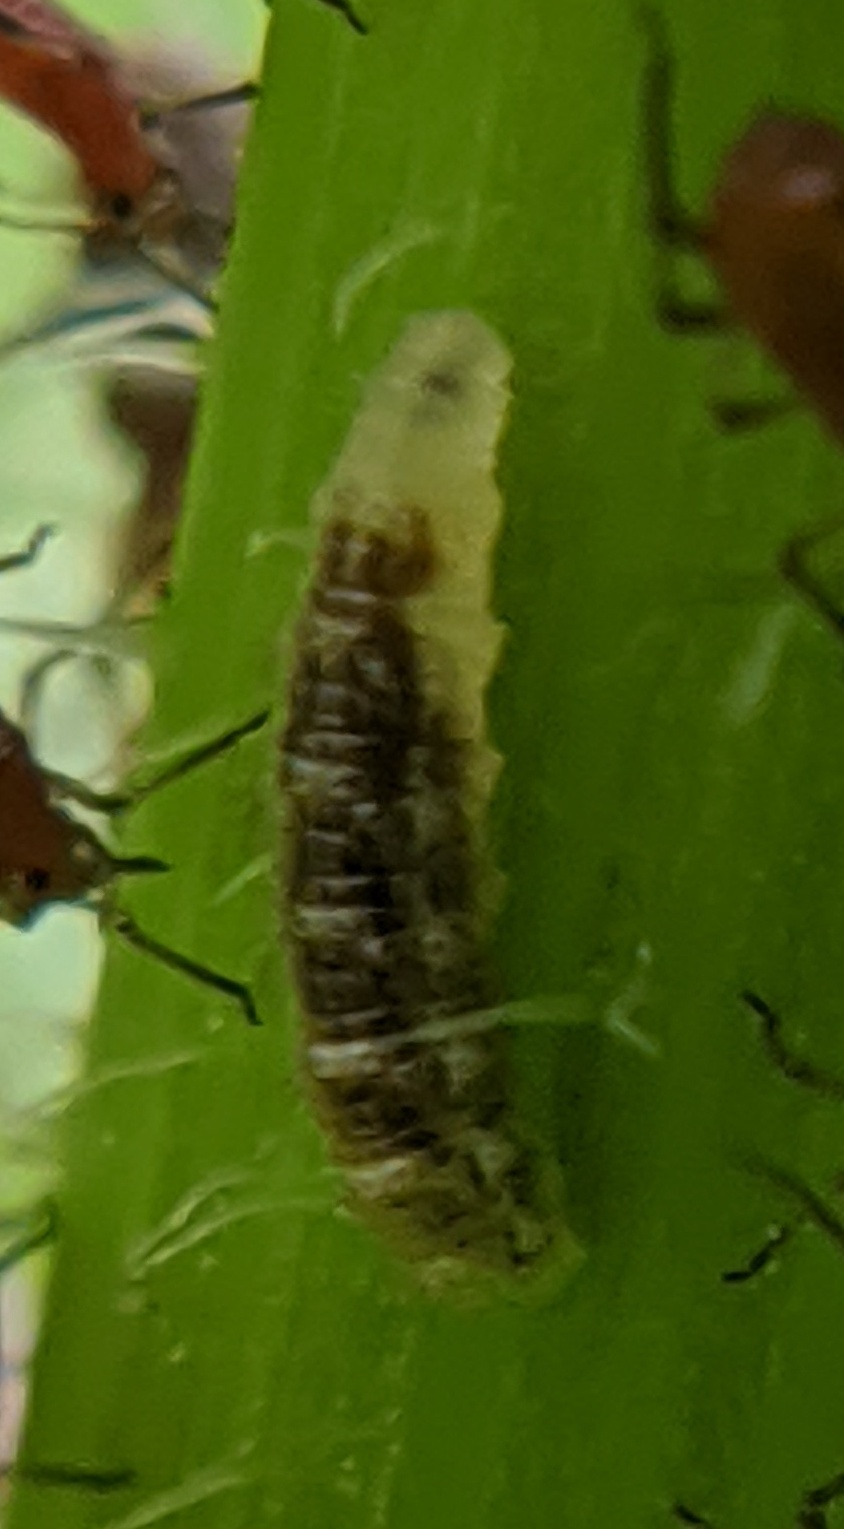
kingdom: Animalia
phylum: Arthropoda
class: Insecta
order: Diptera
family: Syrphidae
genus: Eupeodes
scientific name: Eupeodes pomus
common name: Short-tailed aphideater
